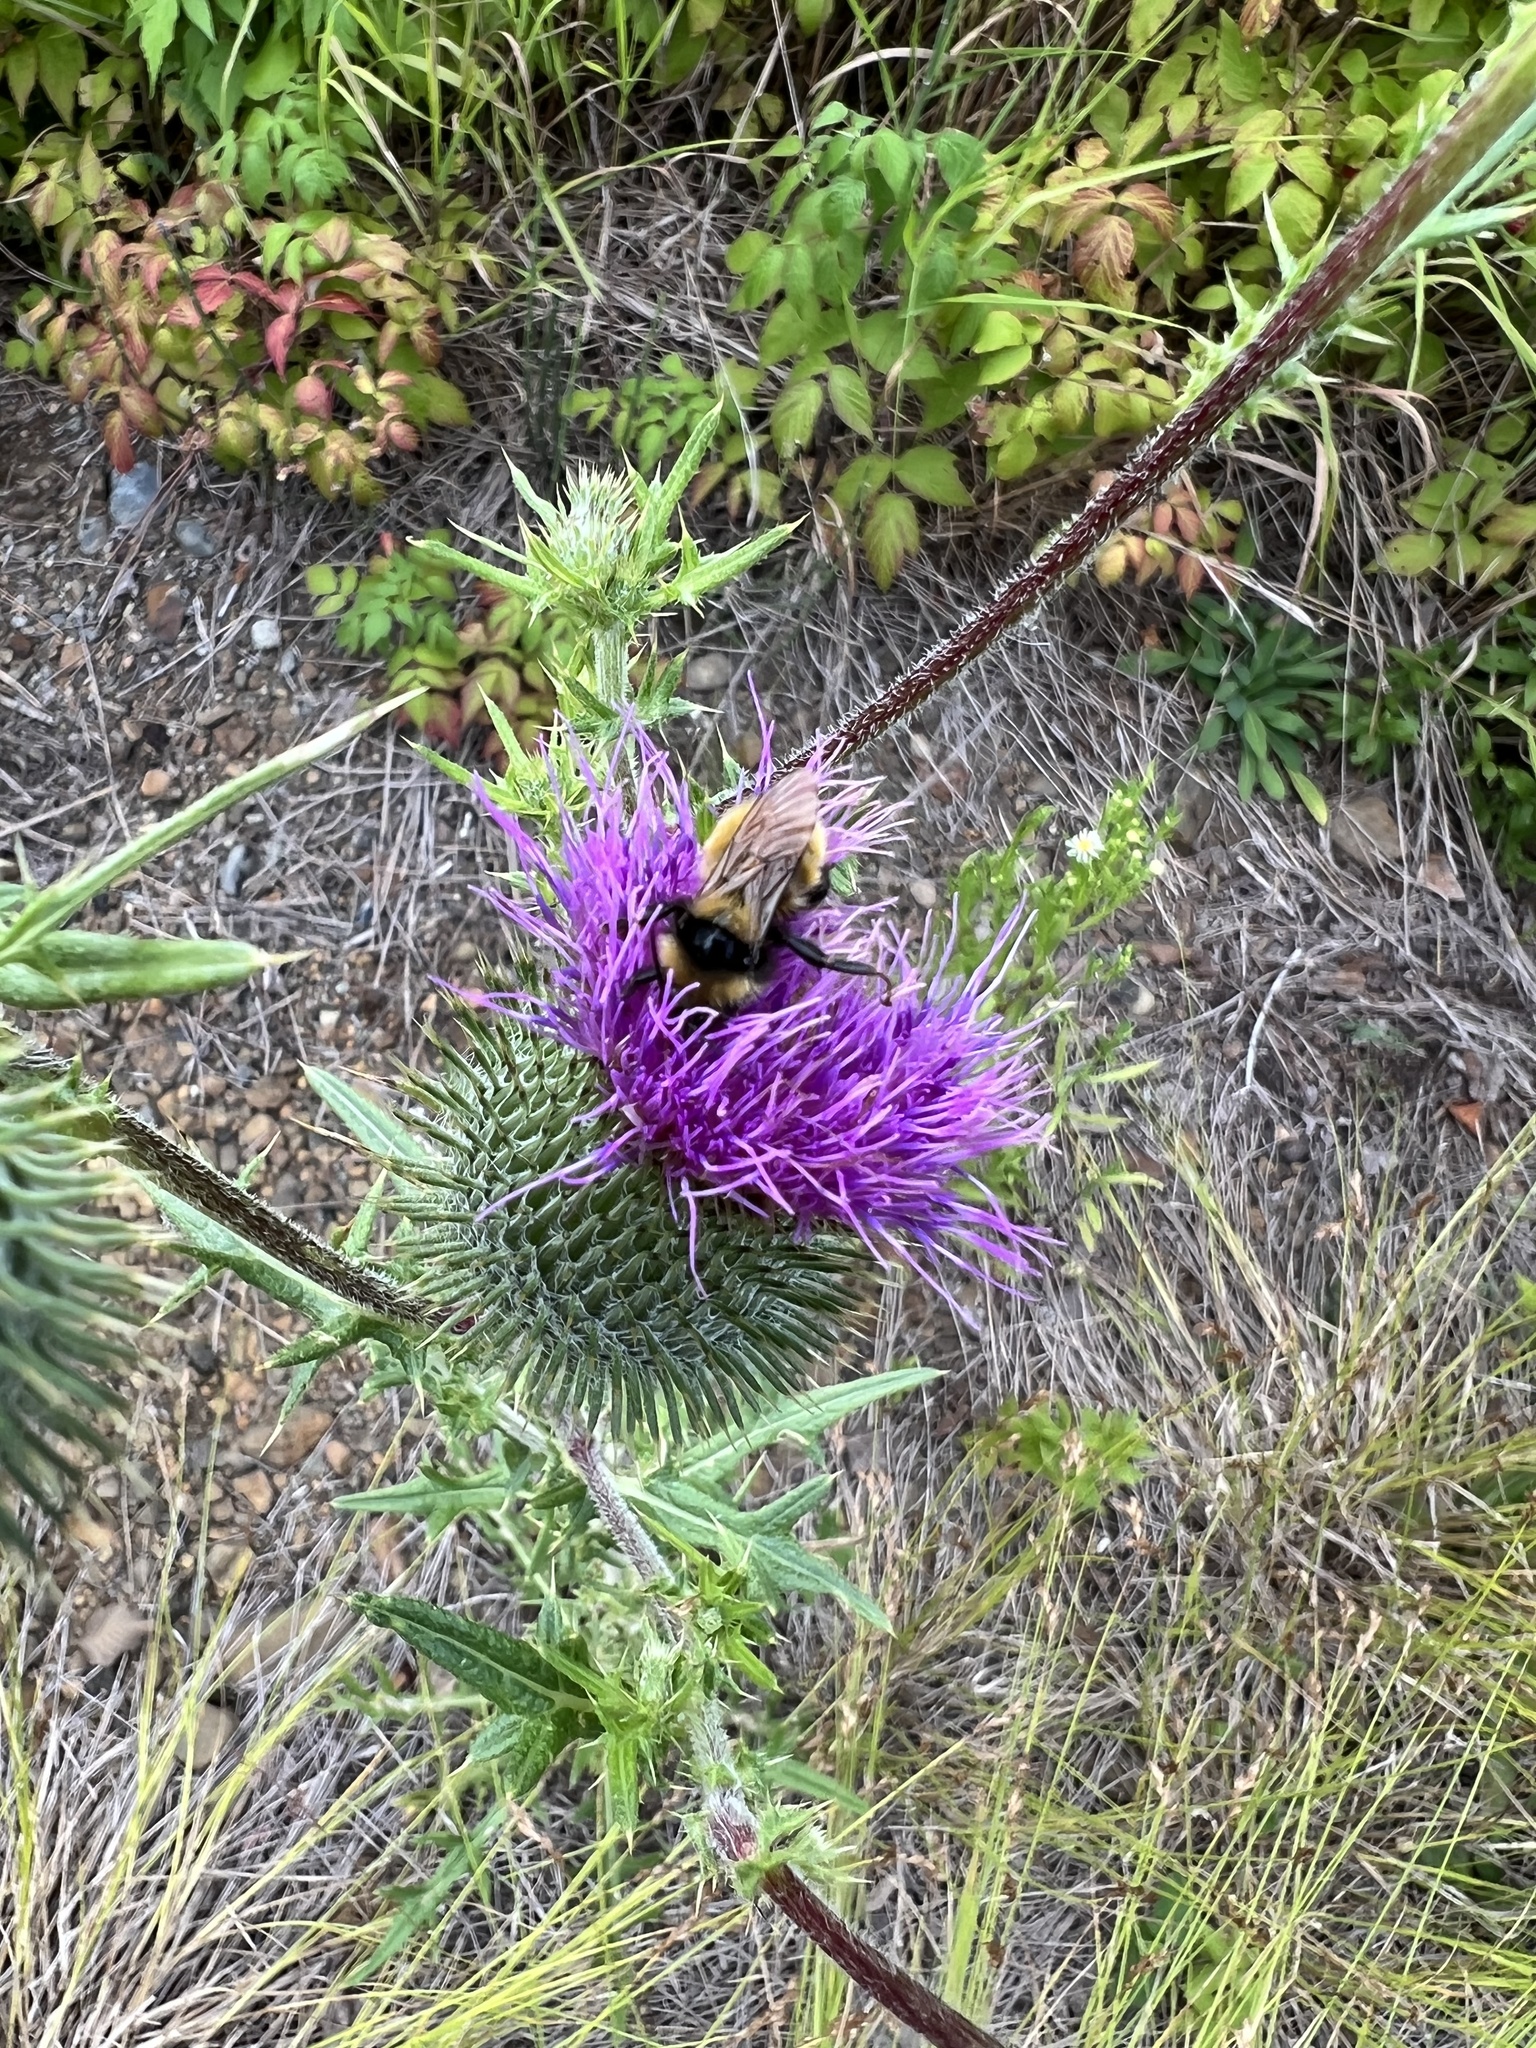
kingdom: Animalia
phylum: Arthropoda
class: Insecta
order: Hymenoptera
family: Apidae
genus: Bombus
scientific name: Bombus borealis
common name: Northern amber bumble bee
